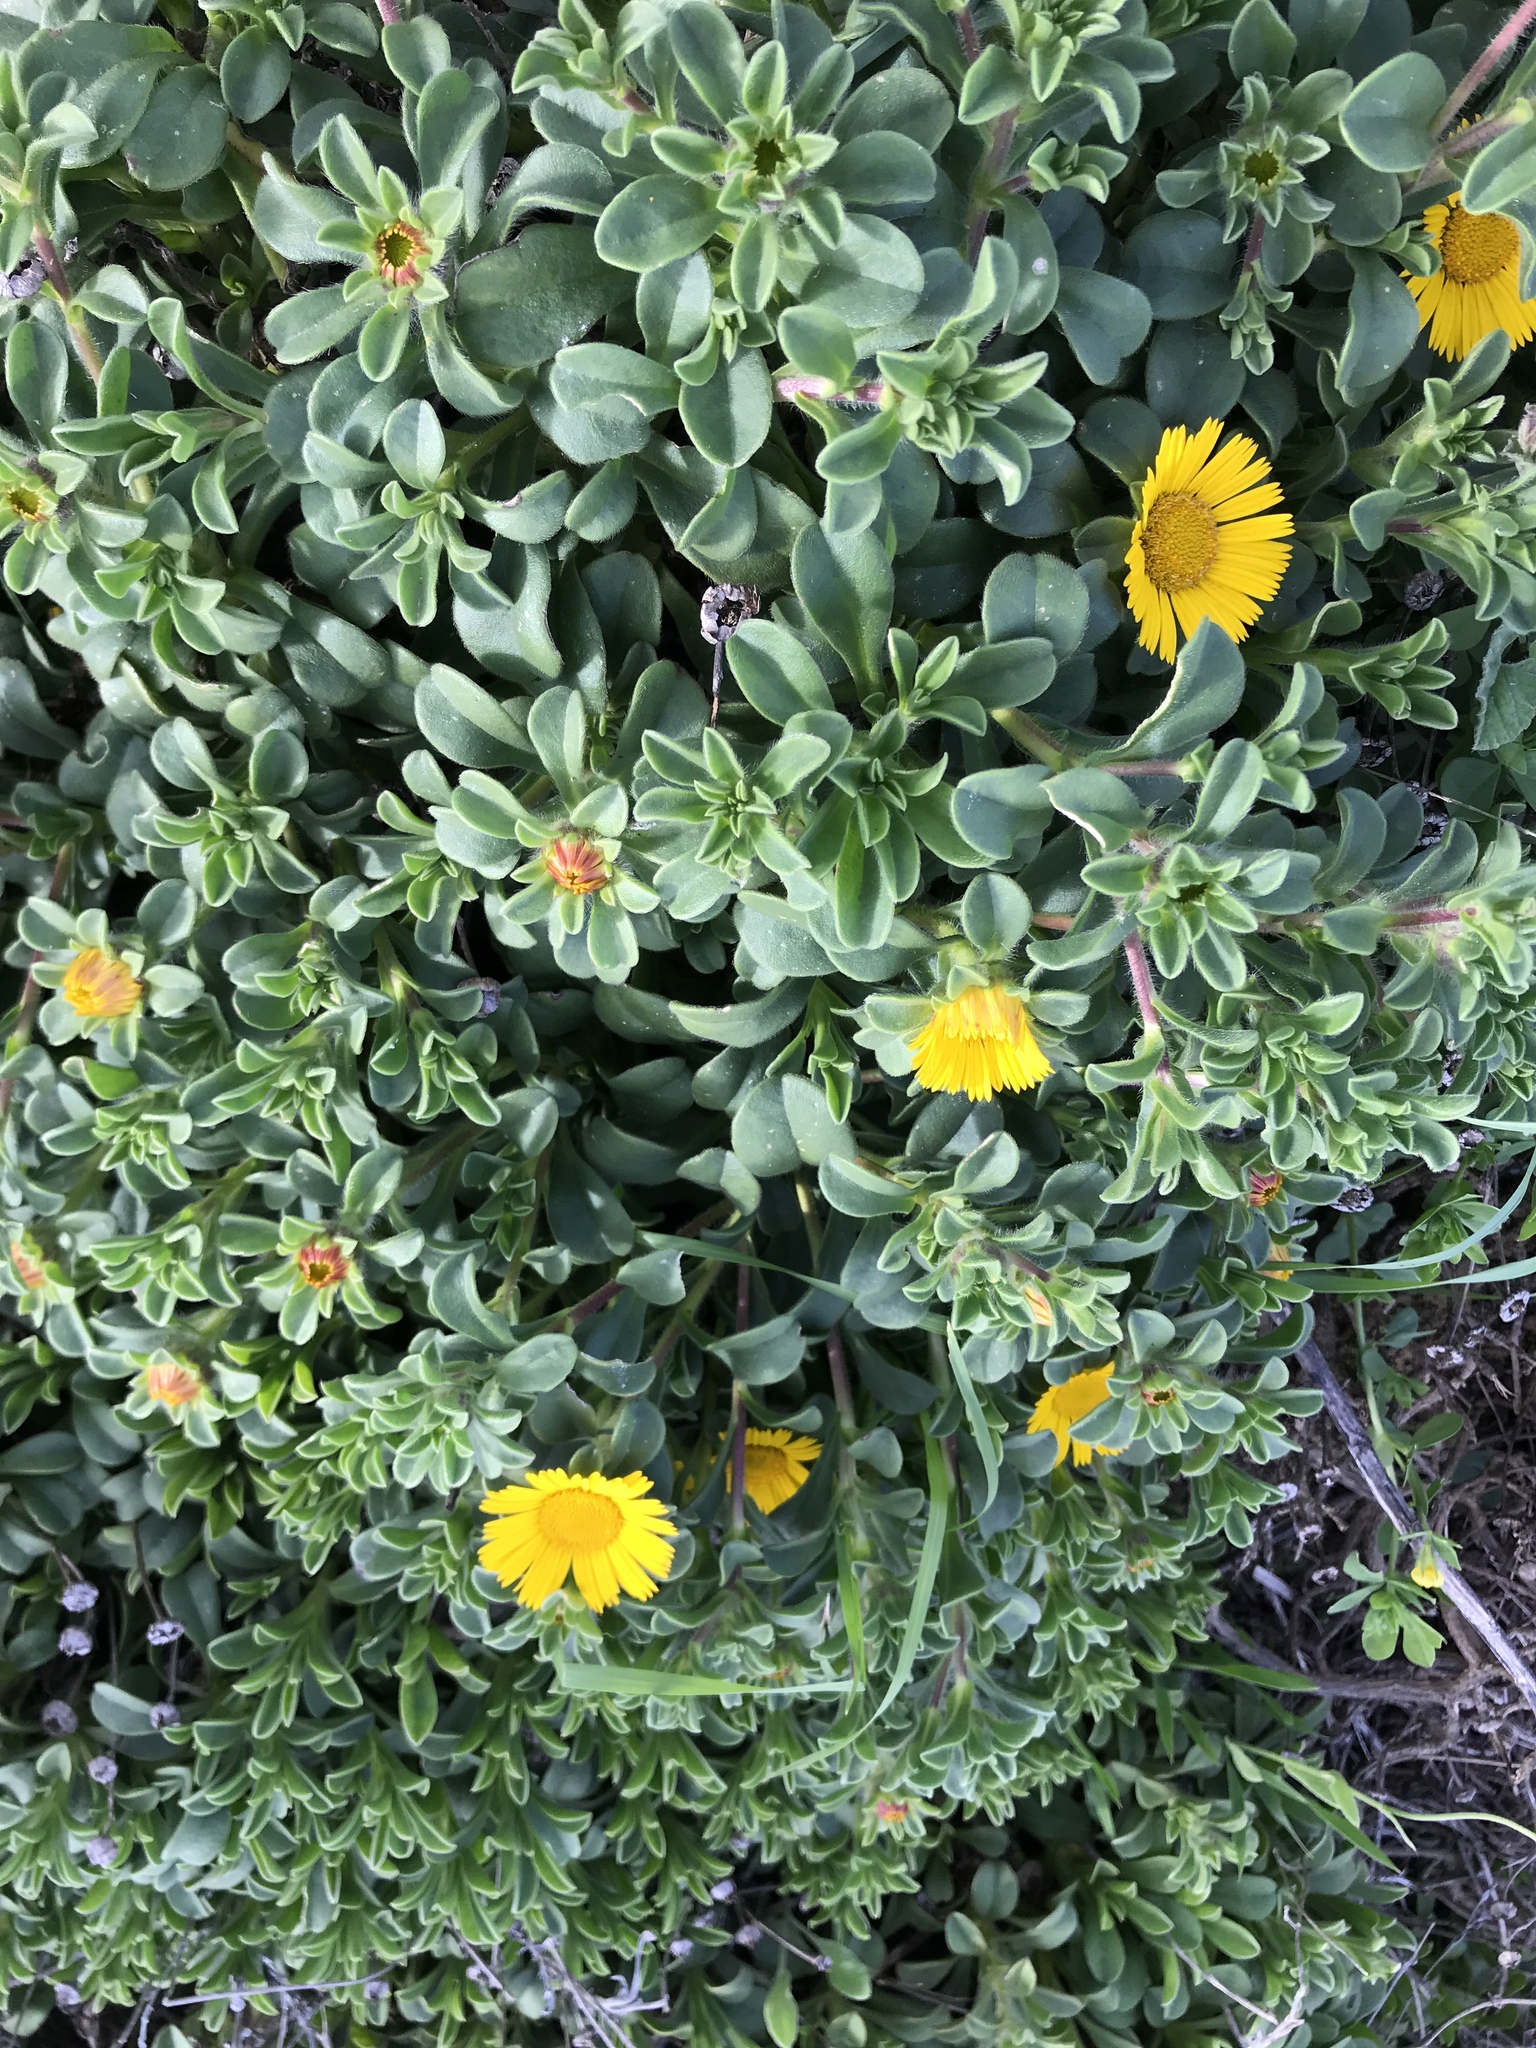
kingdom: Plantae
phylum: Tracheophyta
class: Magnoliopsida
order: Asterales
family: Asteraceae
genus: Pallenis
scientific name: Pallenis maritima
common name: Golden coin daisy
